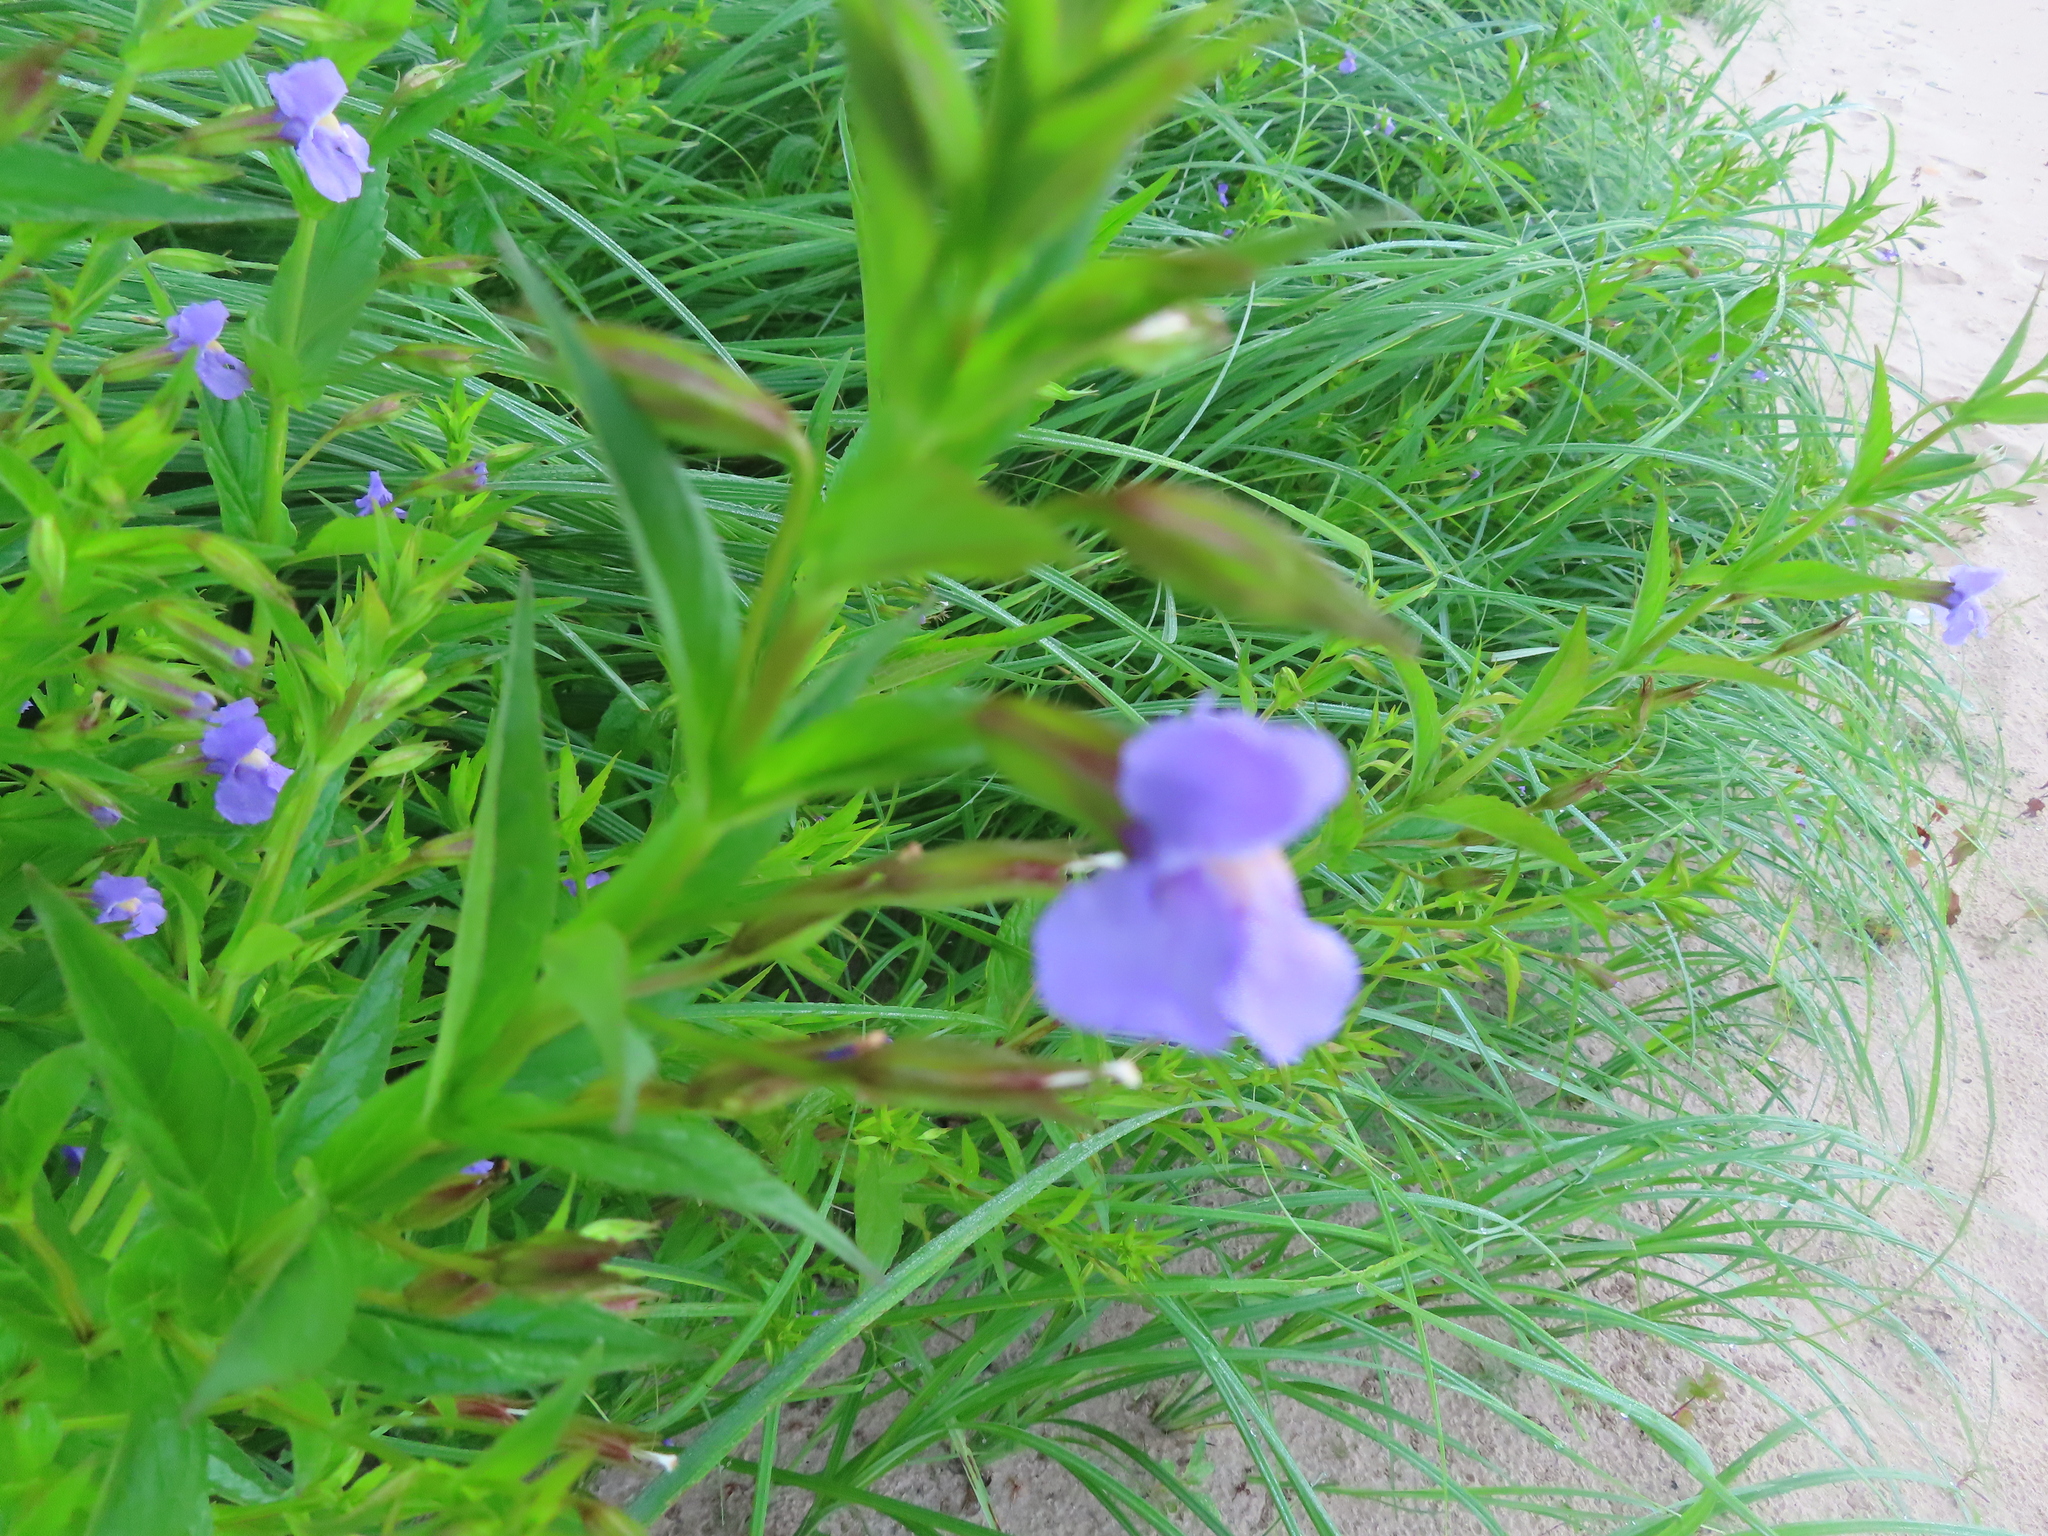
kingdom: Plantae
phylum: Tracheophyta
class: Magnoliopsida
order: Lamiales
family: Phrymaceae
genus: Mimulus
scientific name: Mimulus ringens
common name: Allegheny monkeyflower
